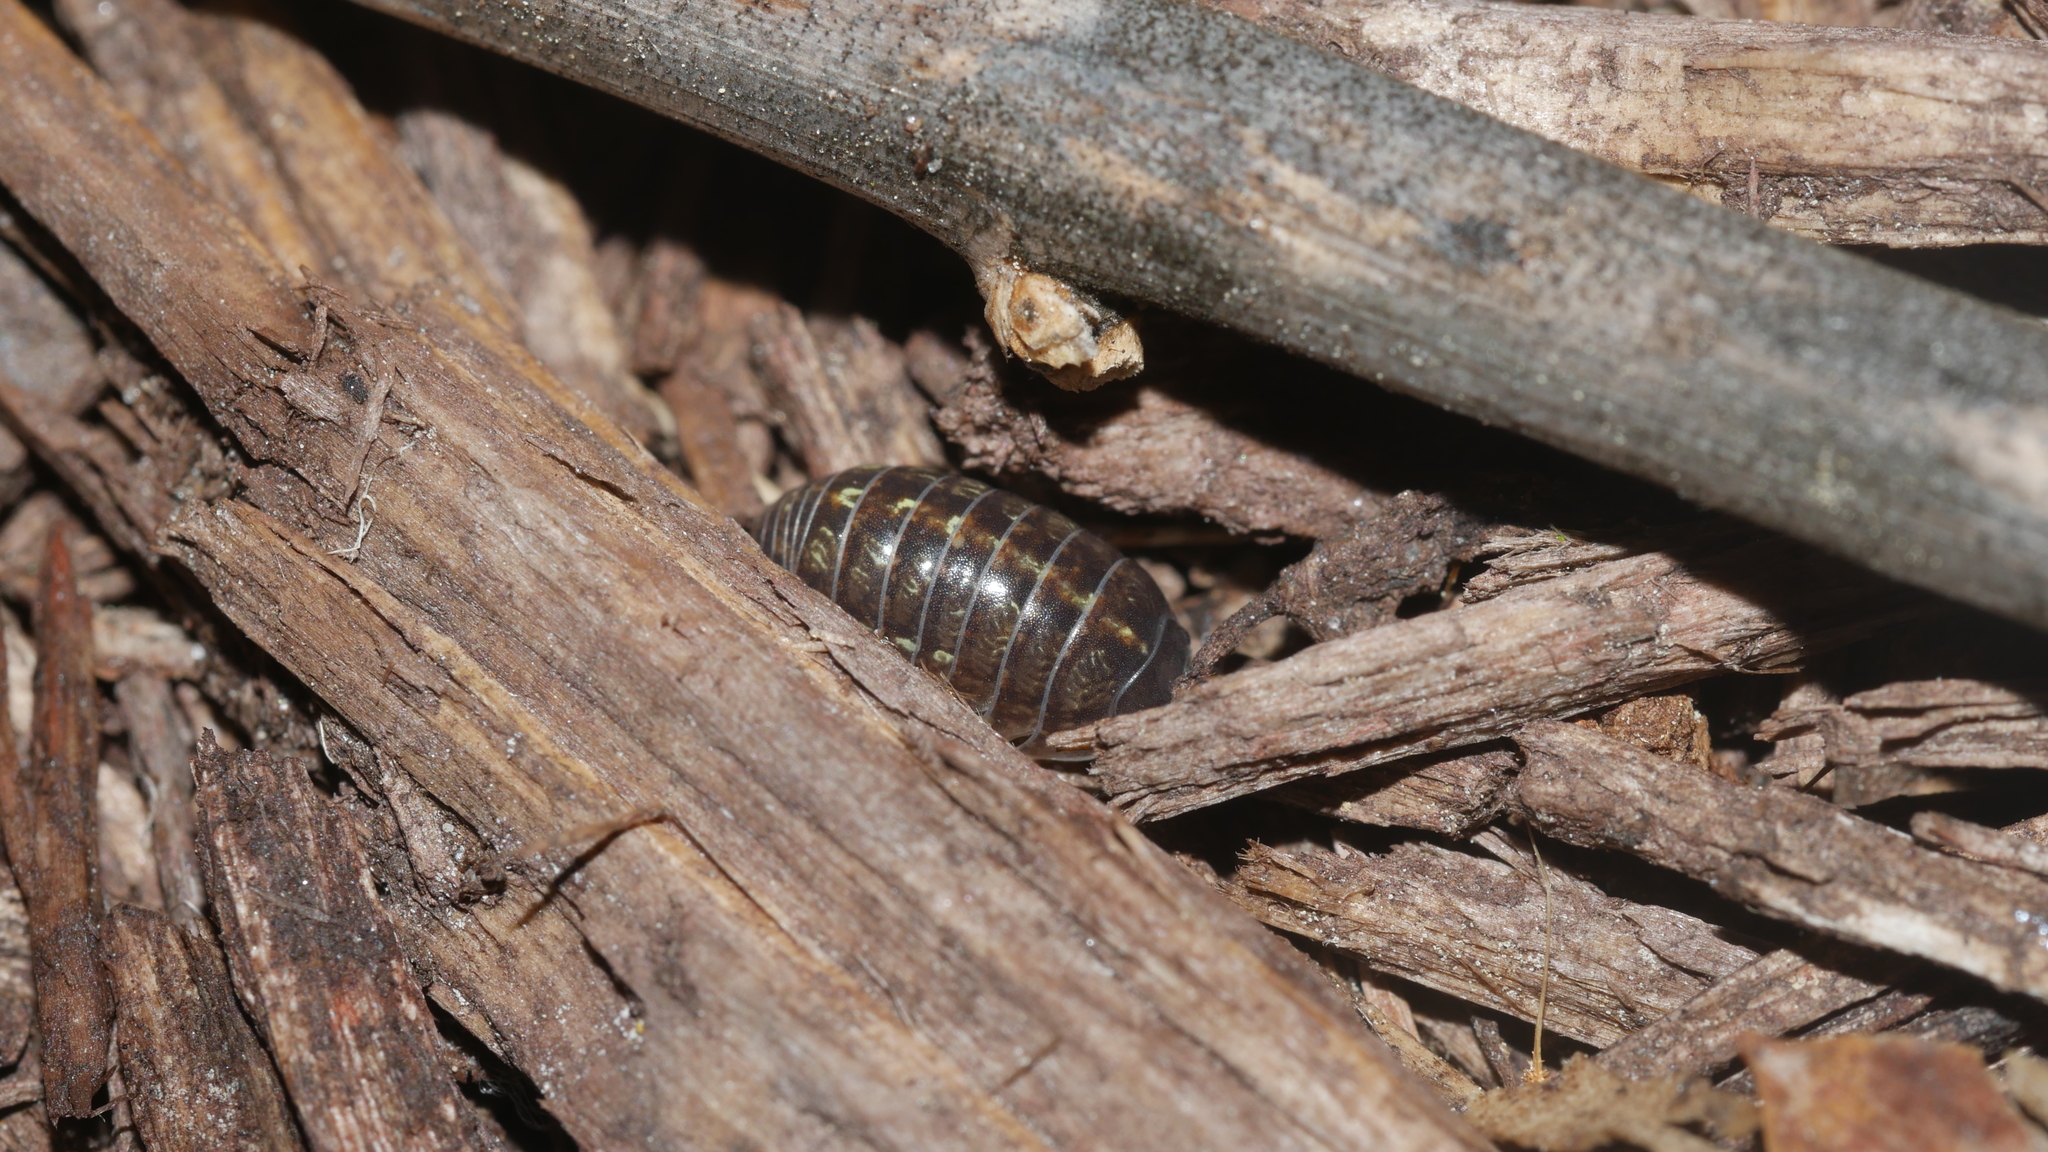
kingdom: Animalia
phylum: Arthropoda
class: Malacostraca
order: Isopoda
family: Armadillidiidae
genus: Armadillidium
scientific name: Armadillidium vulgare
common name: Common pill woodlouse
